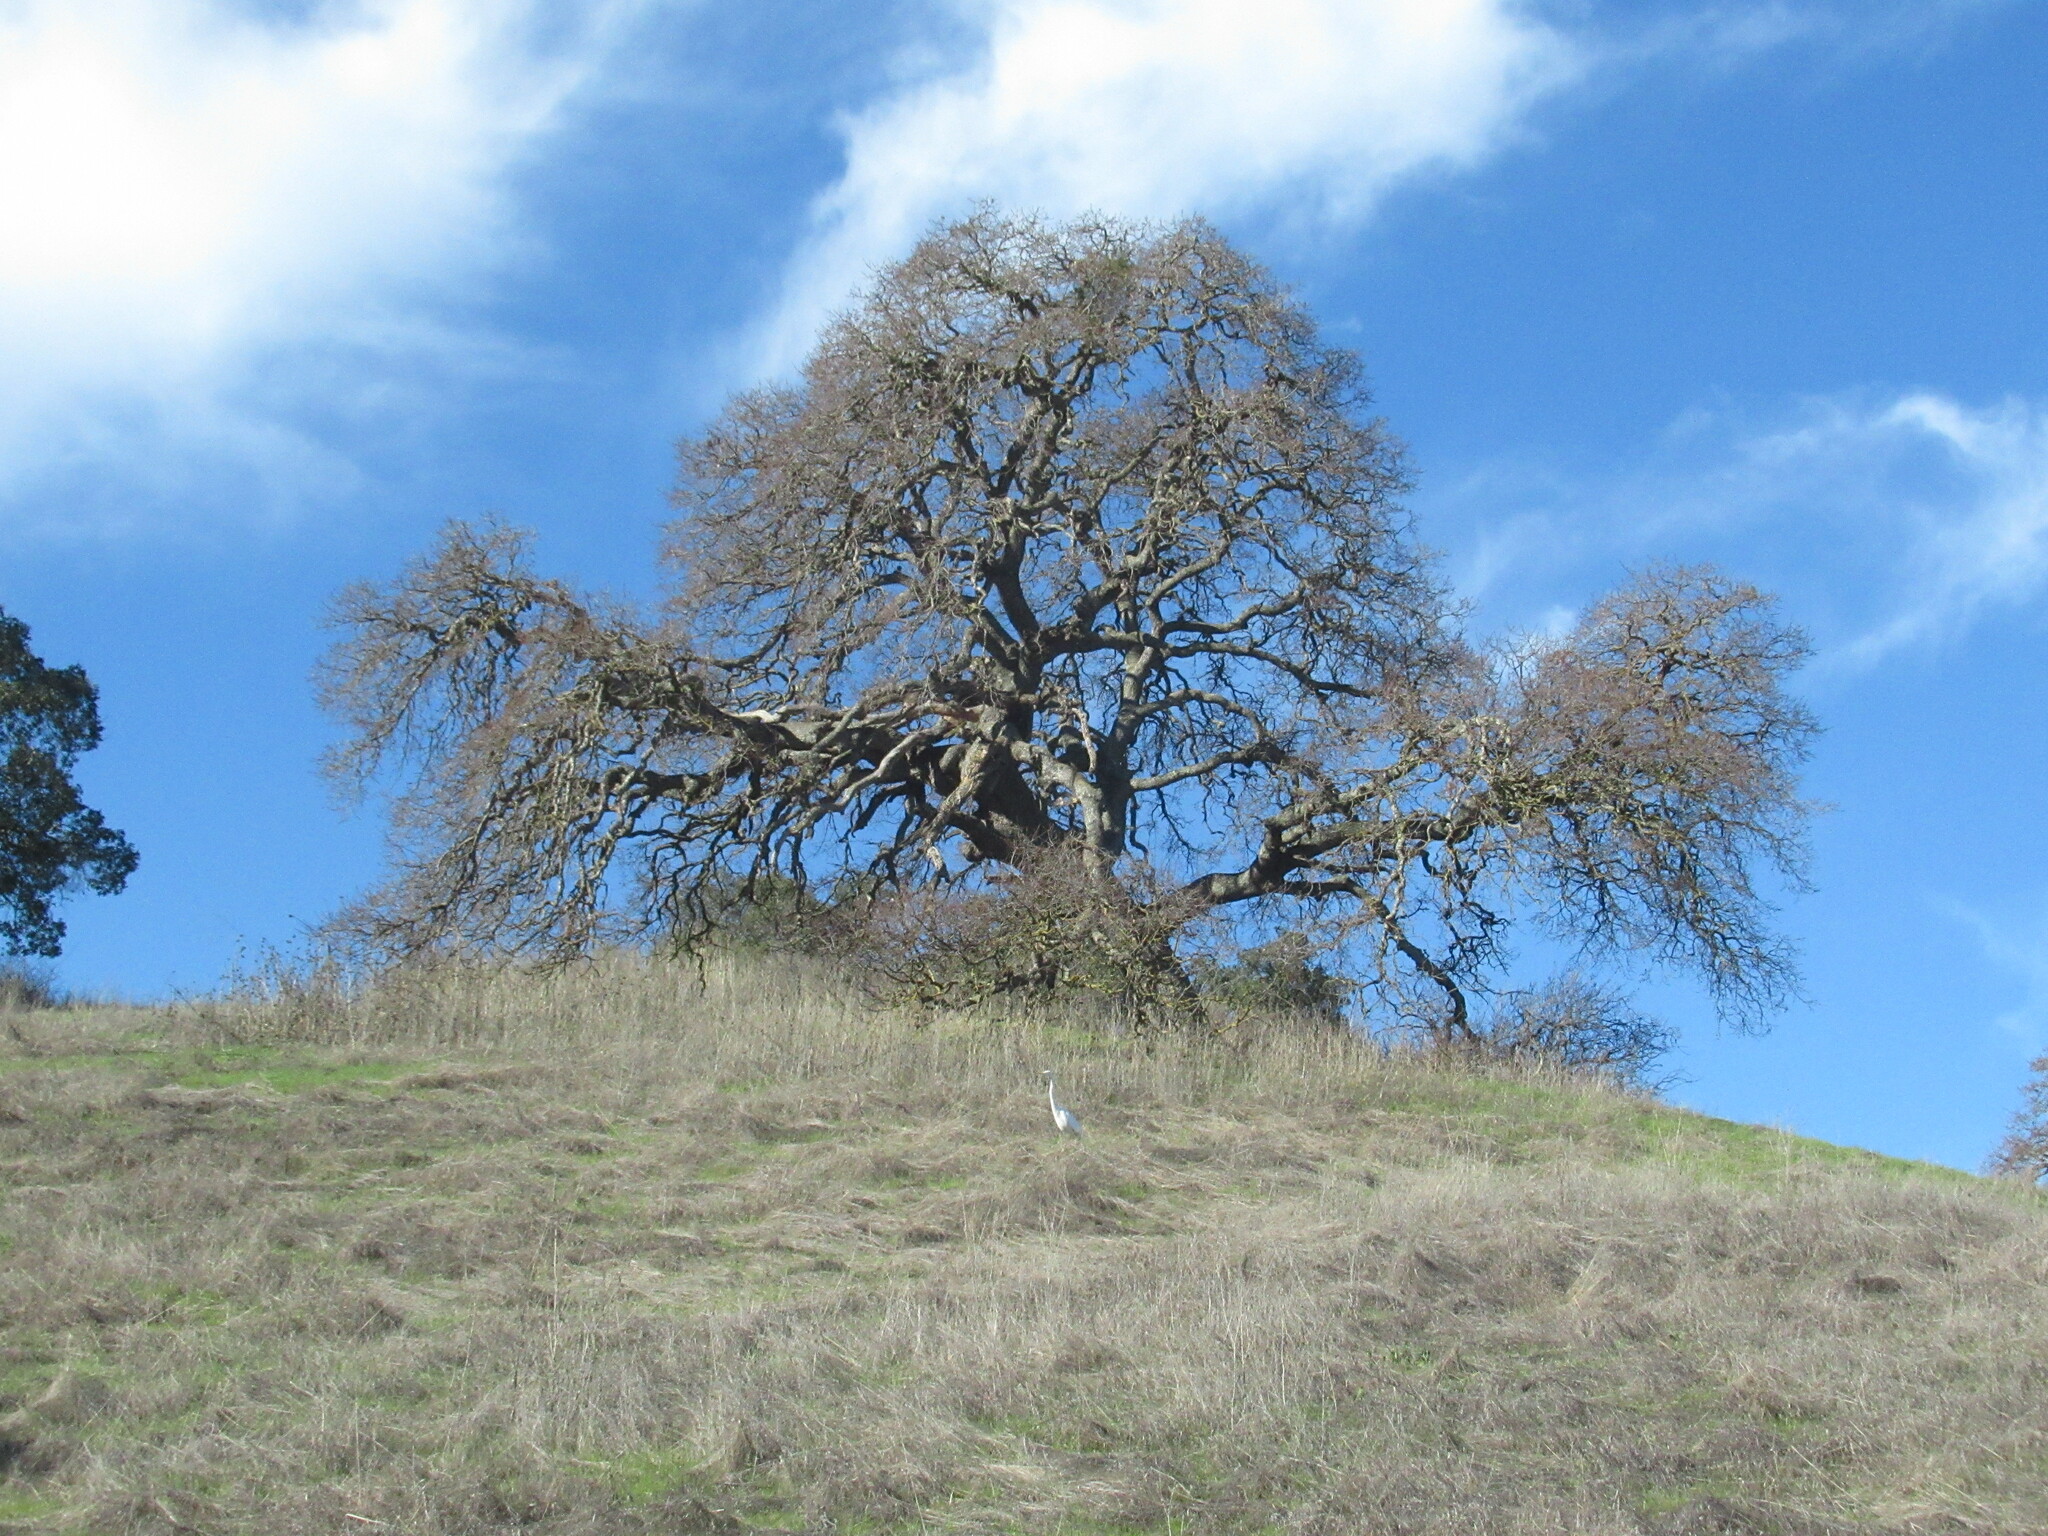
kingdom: Animalia
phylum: Chordata
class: Aves
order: Pelecaniformes
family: Ardeidae
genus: Ardea
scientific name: Ardea alba
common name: Great egret
